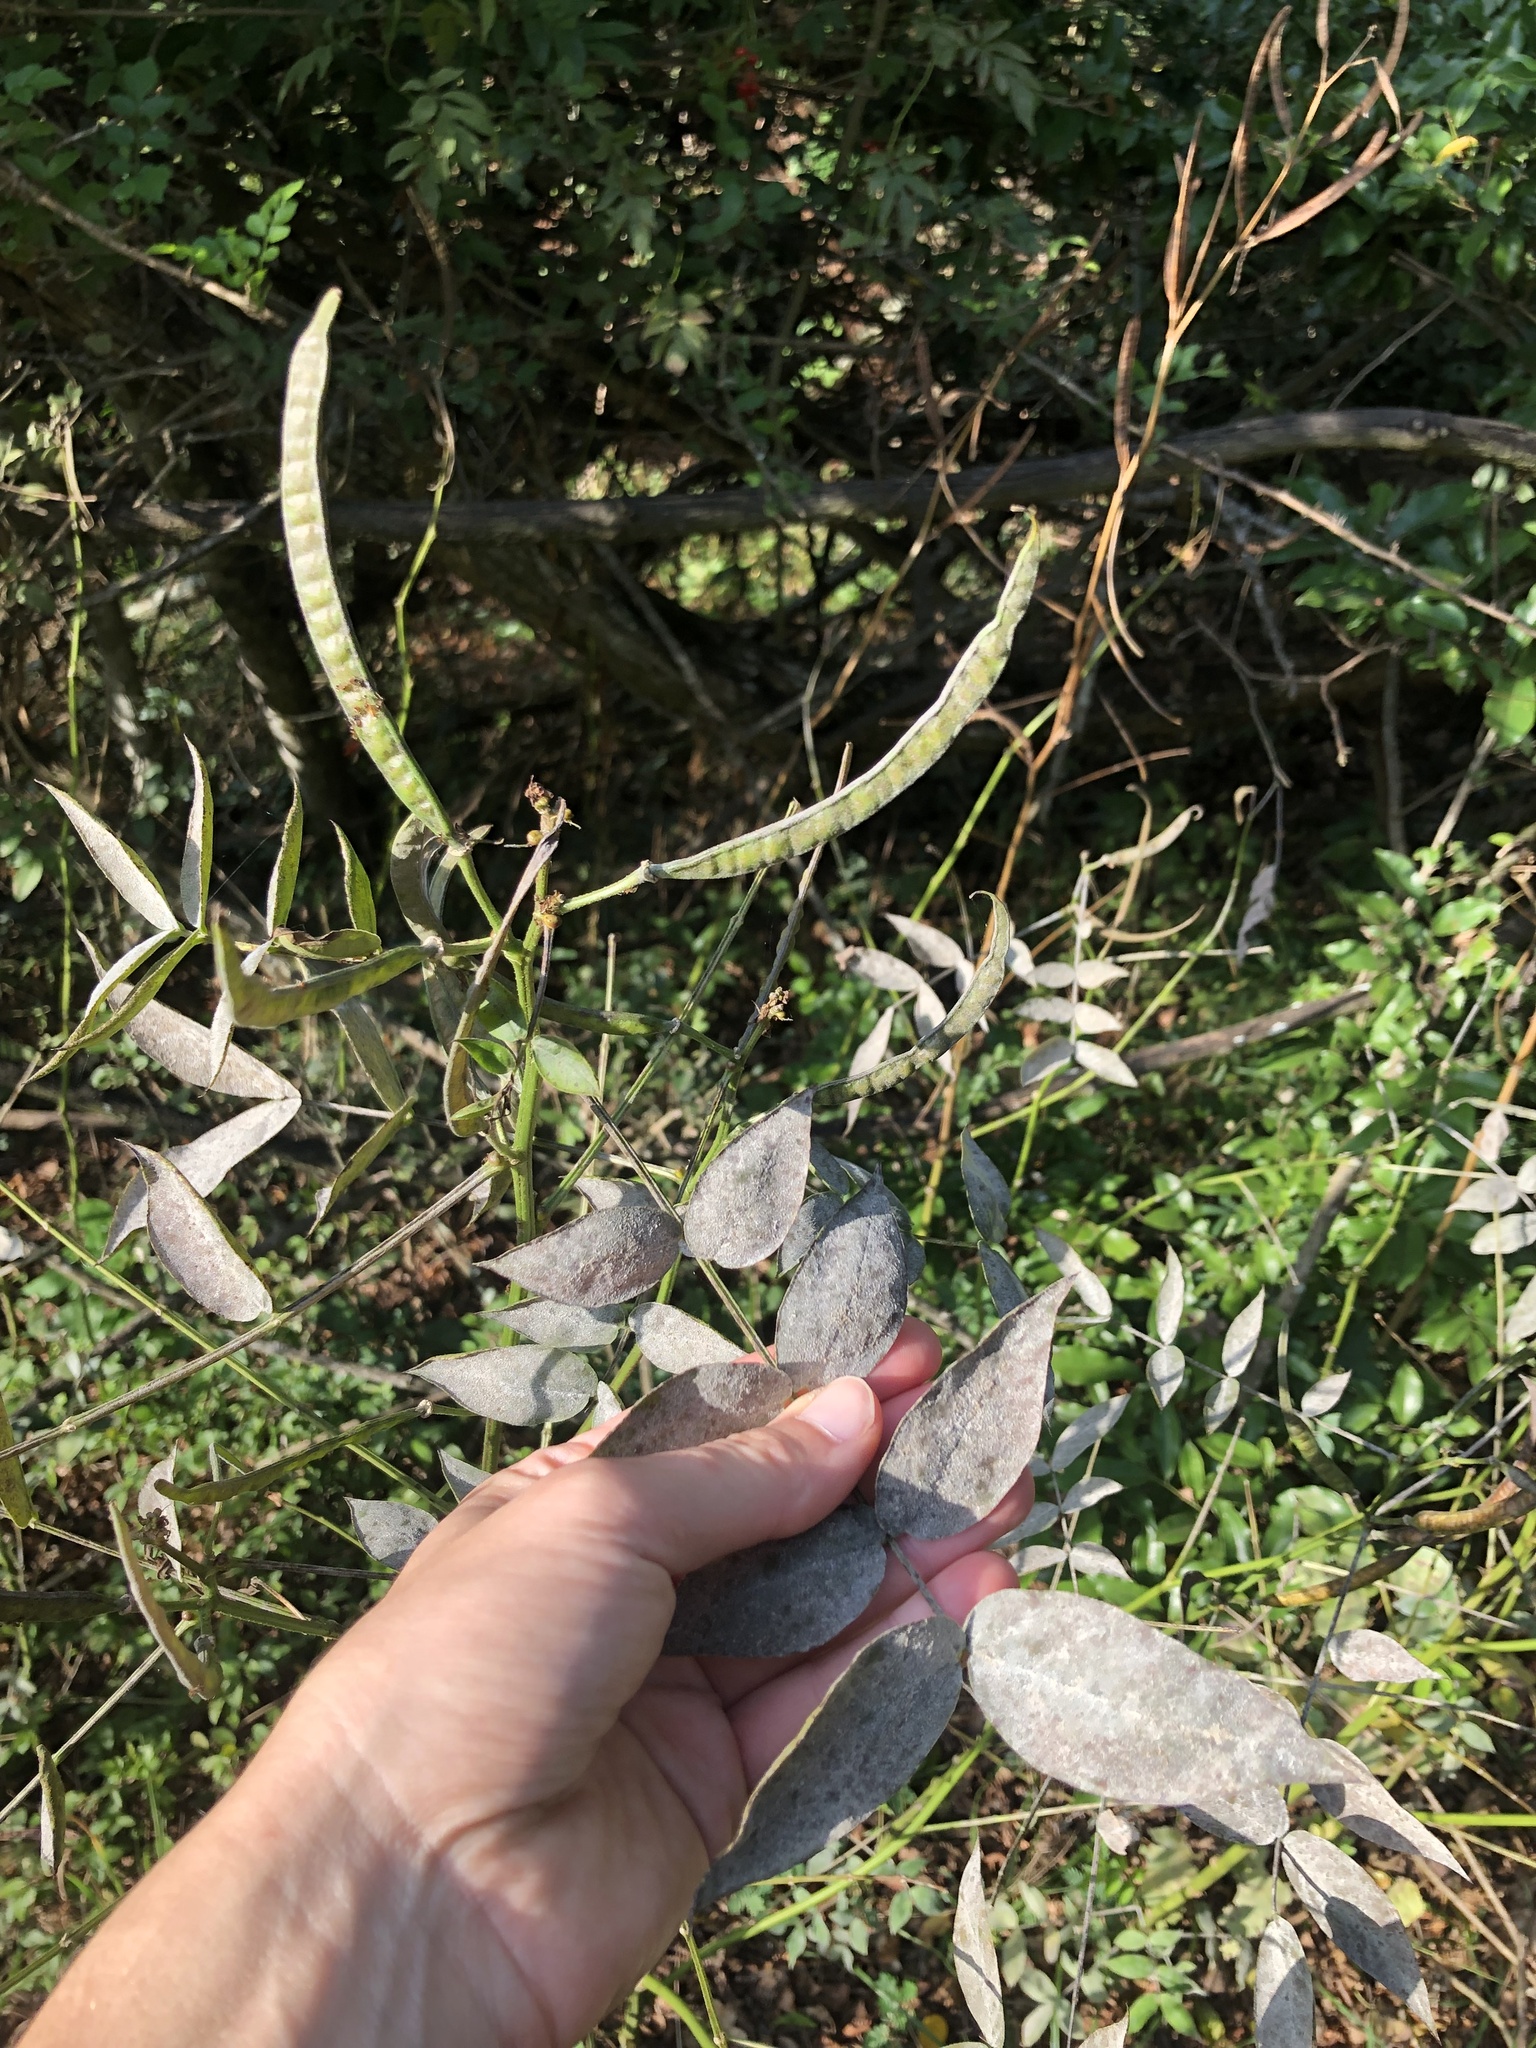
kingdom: Plantae
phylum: Tracheophyta
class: Magnoliopsida
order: Fabales
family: Fabaceae
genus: Senna
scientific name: Senna occidentalis
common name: Septicweed
